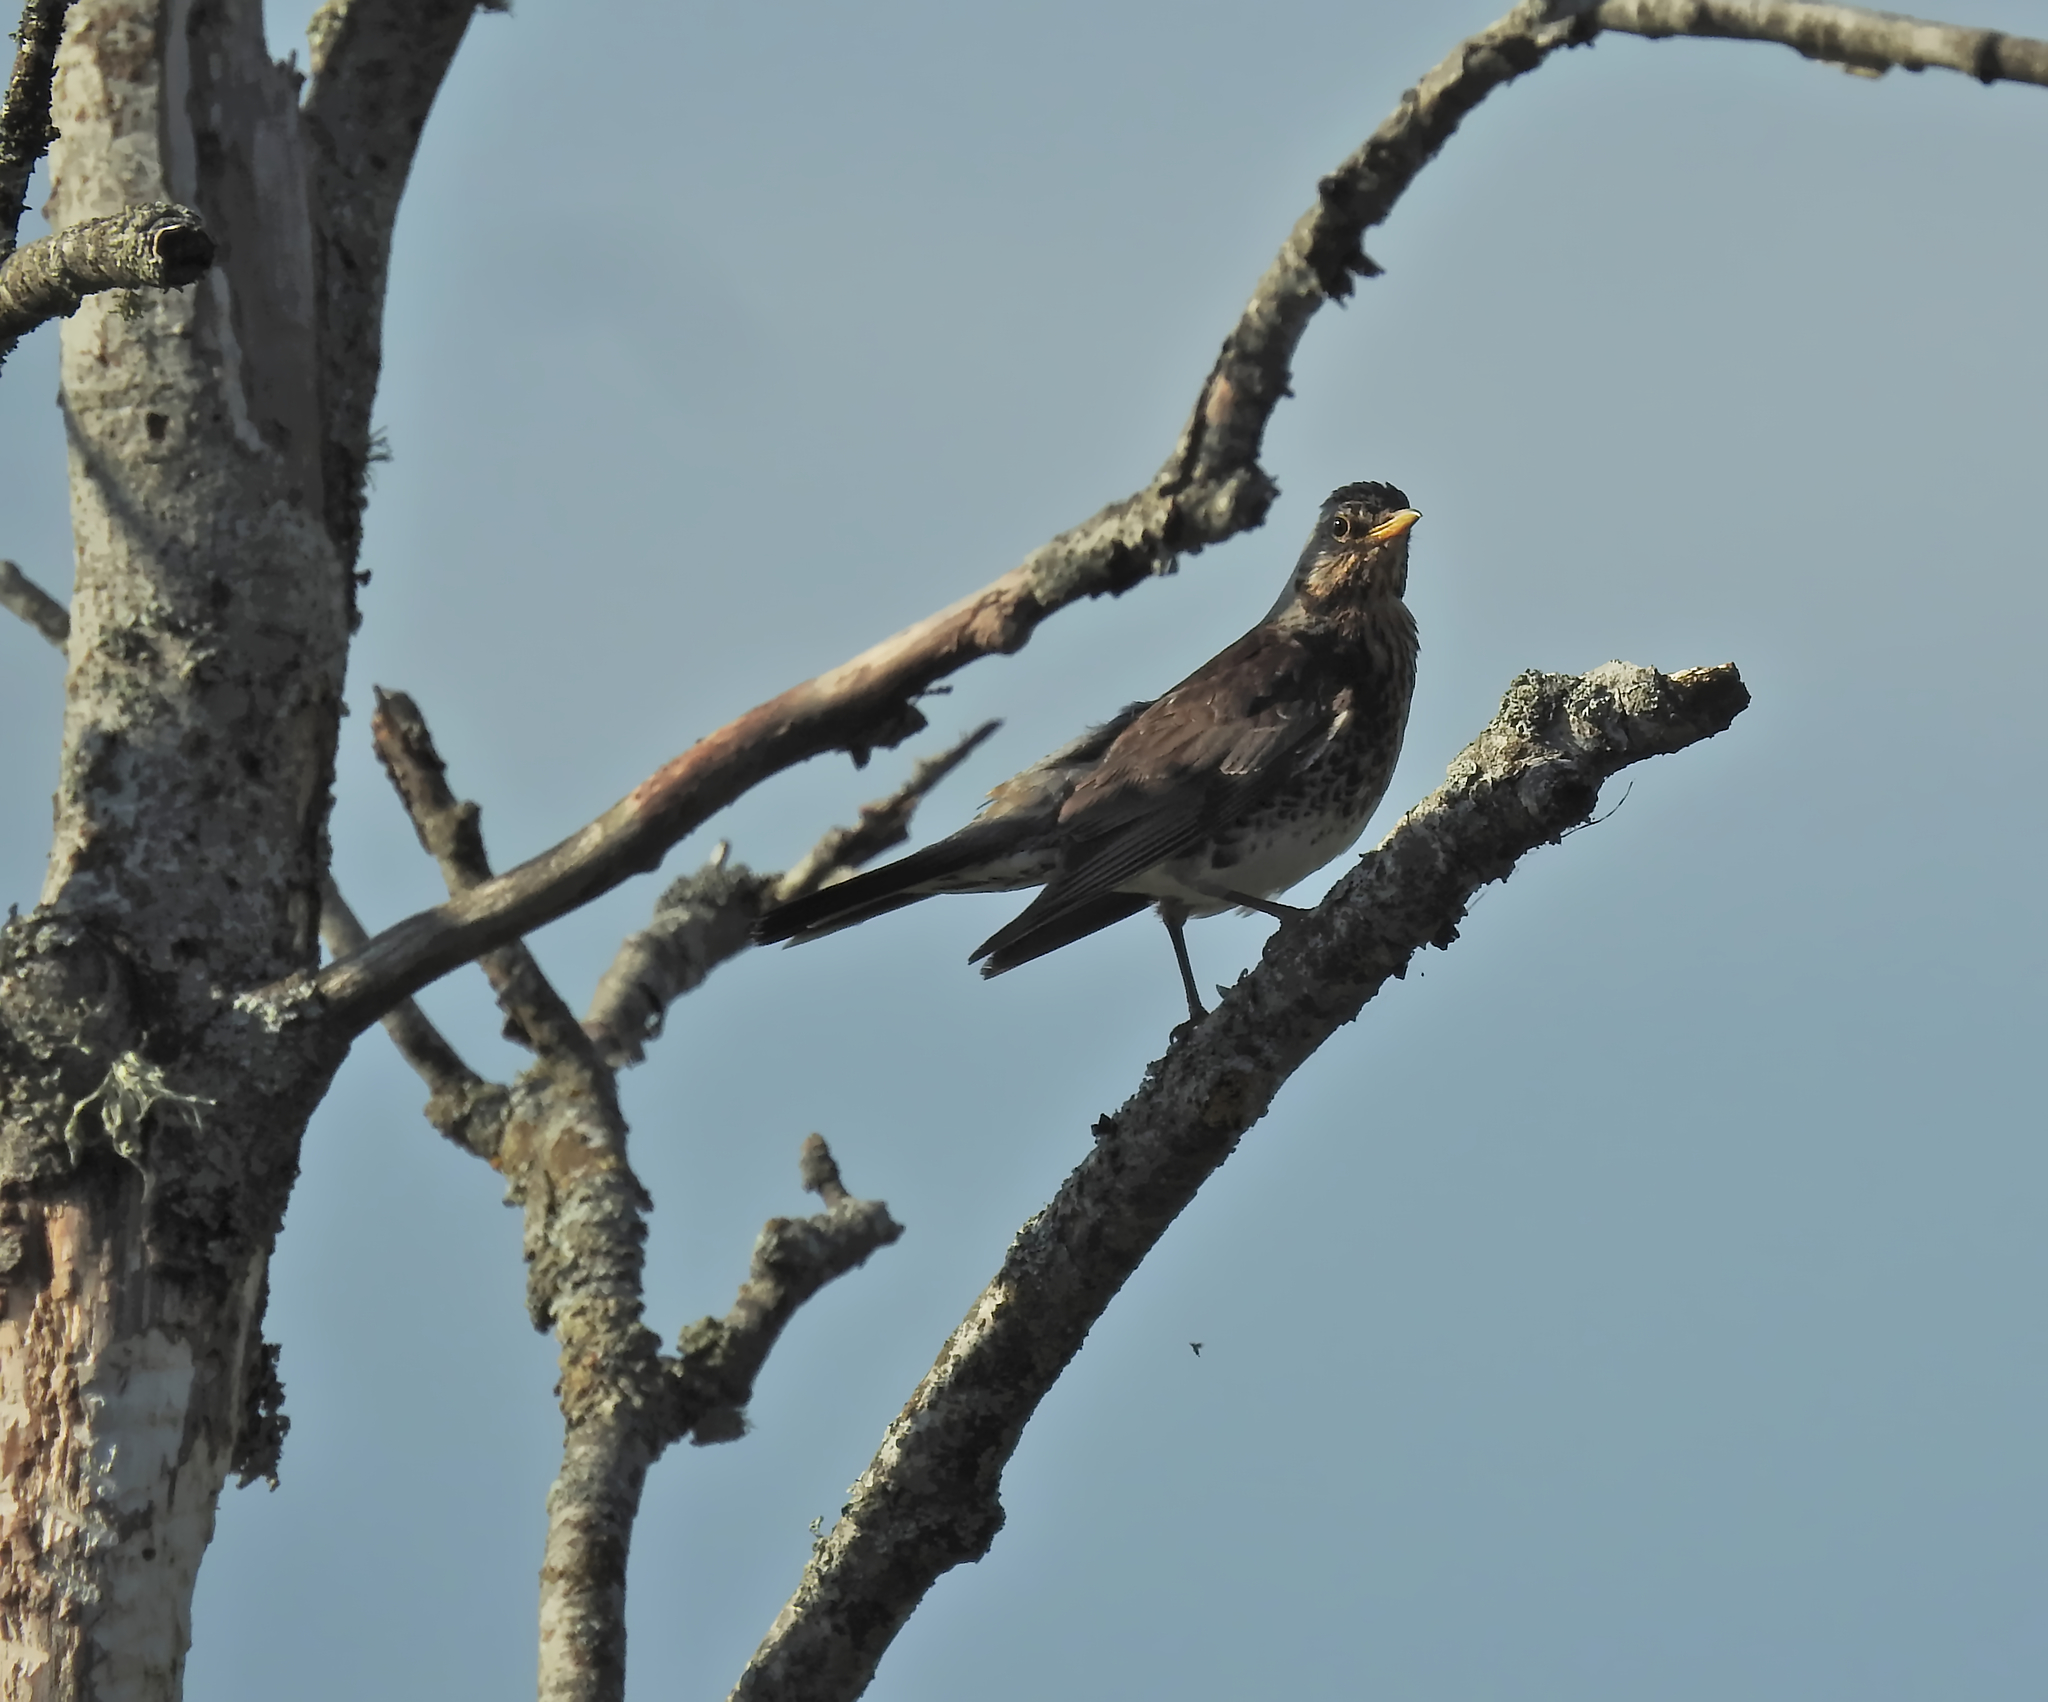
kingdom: Animalia
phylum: Chordata
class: Aves
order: Passeriformes
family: Turdidae
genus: Turdus
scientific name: Turdus pilaris
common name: Fieldfare
